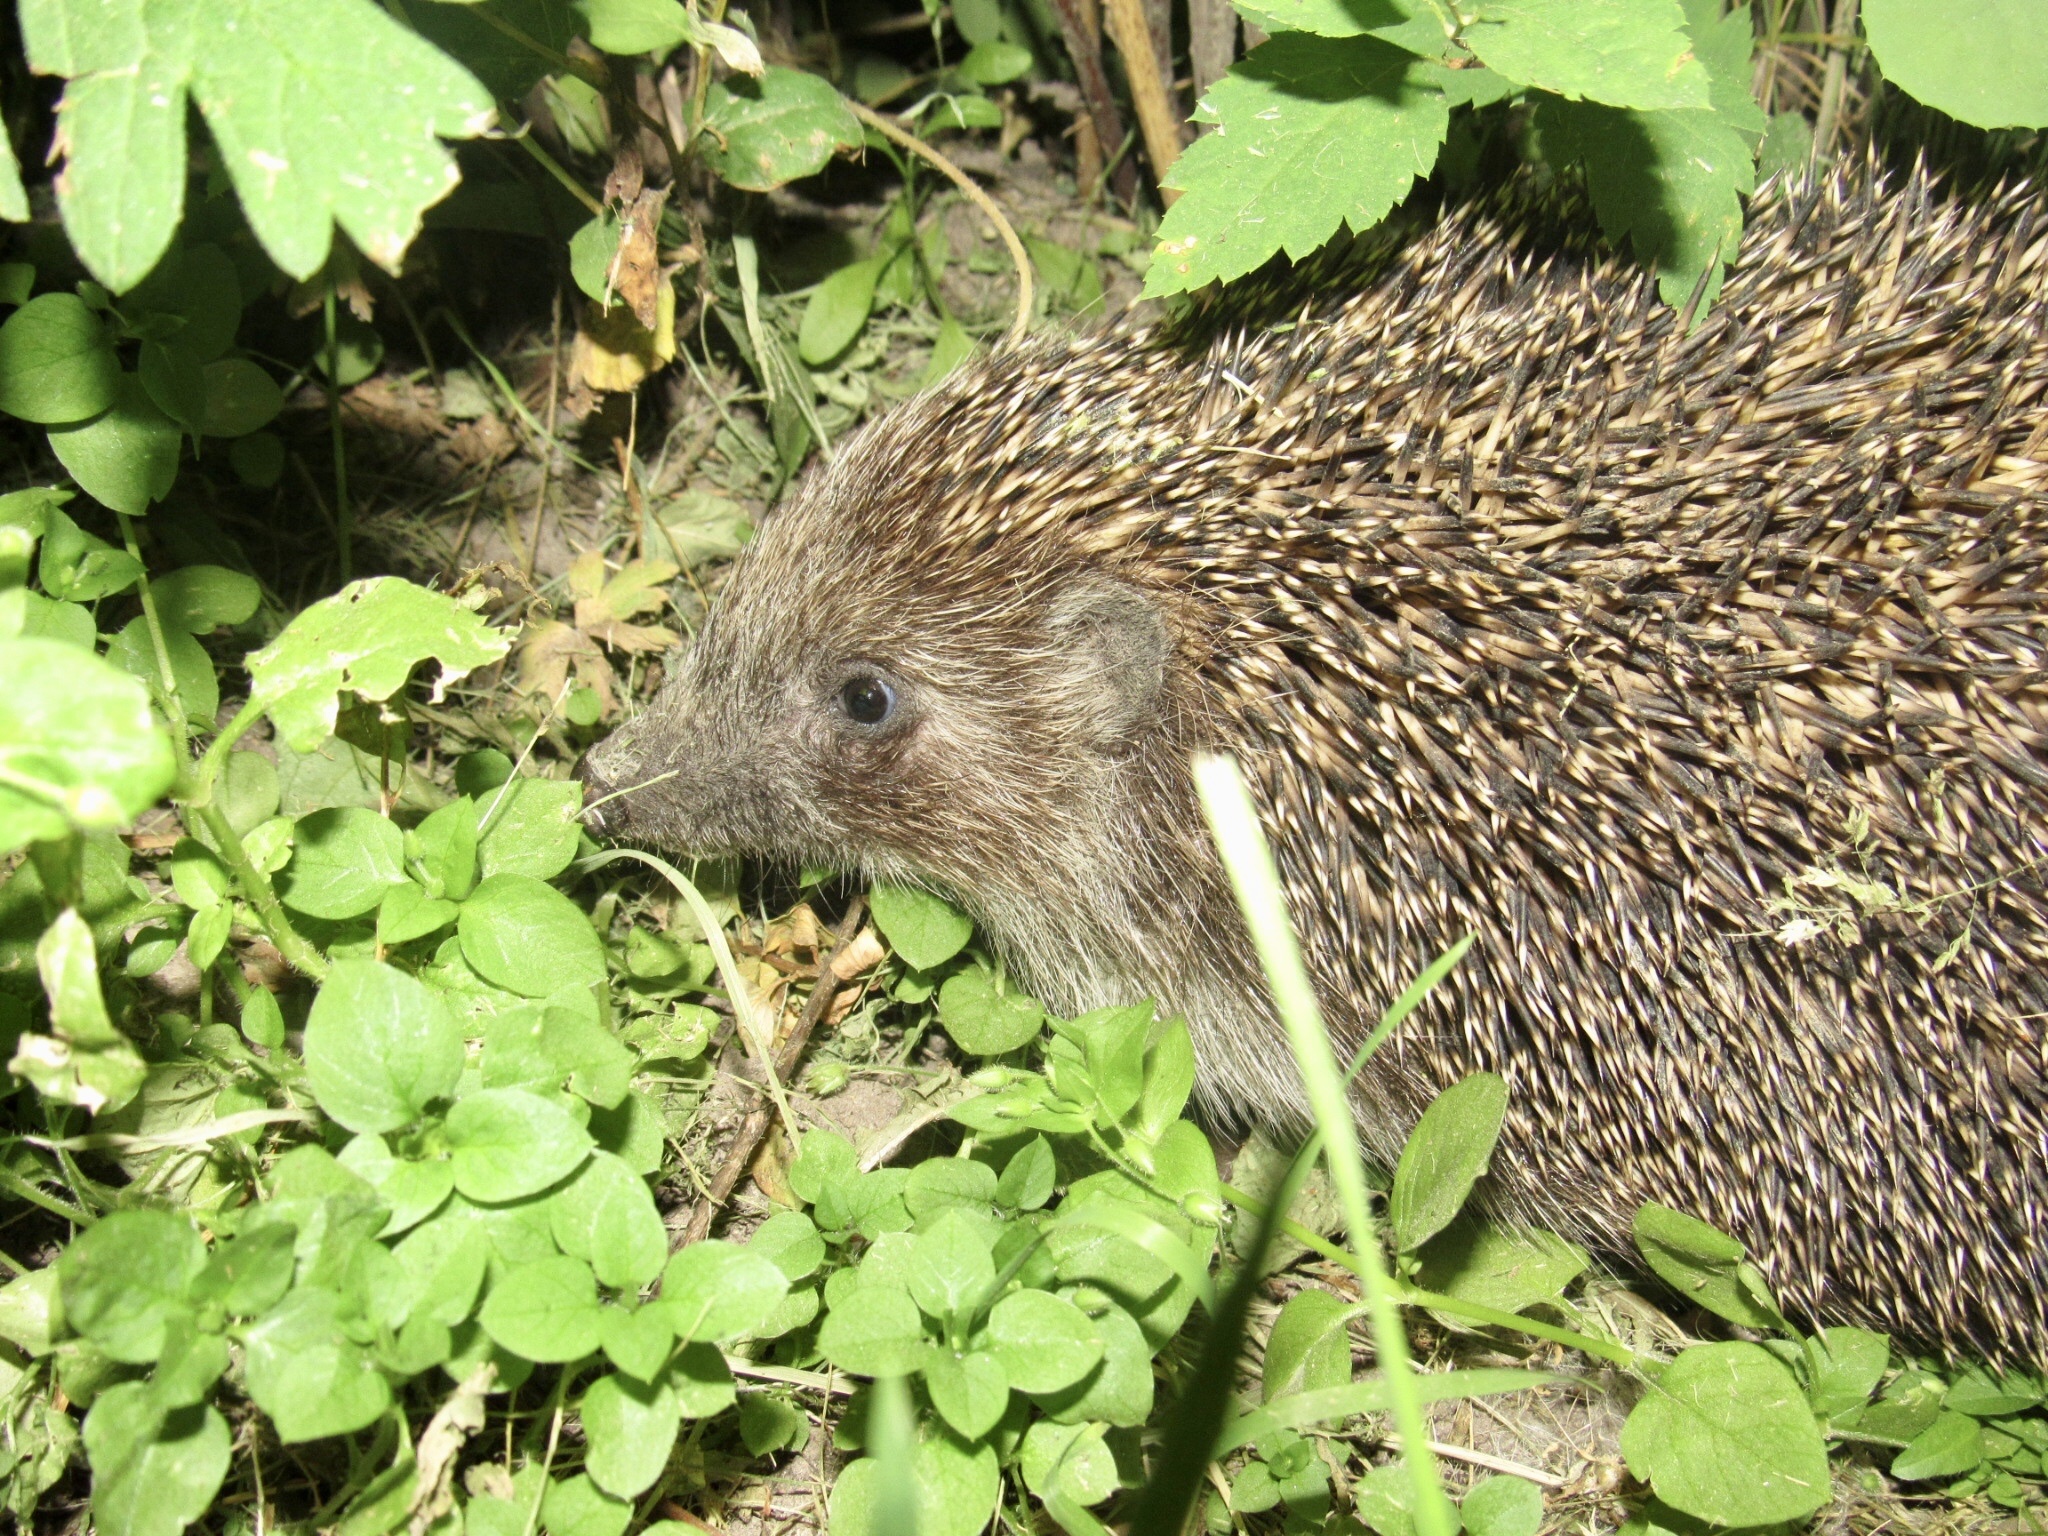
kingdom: Animalia
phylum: Chordata
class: Mammalia
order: Erinaceomorpha
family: Erinaceidae
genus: Erinaceus
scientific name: Erinaceus roumanicus
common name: Northern white-breasted hedgehog
